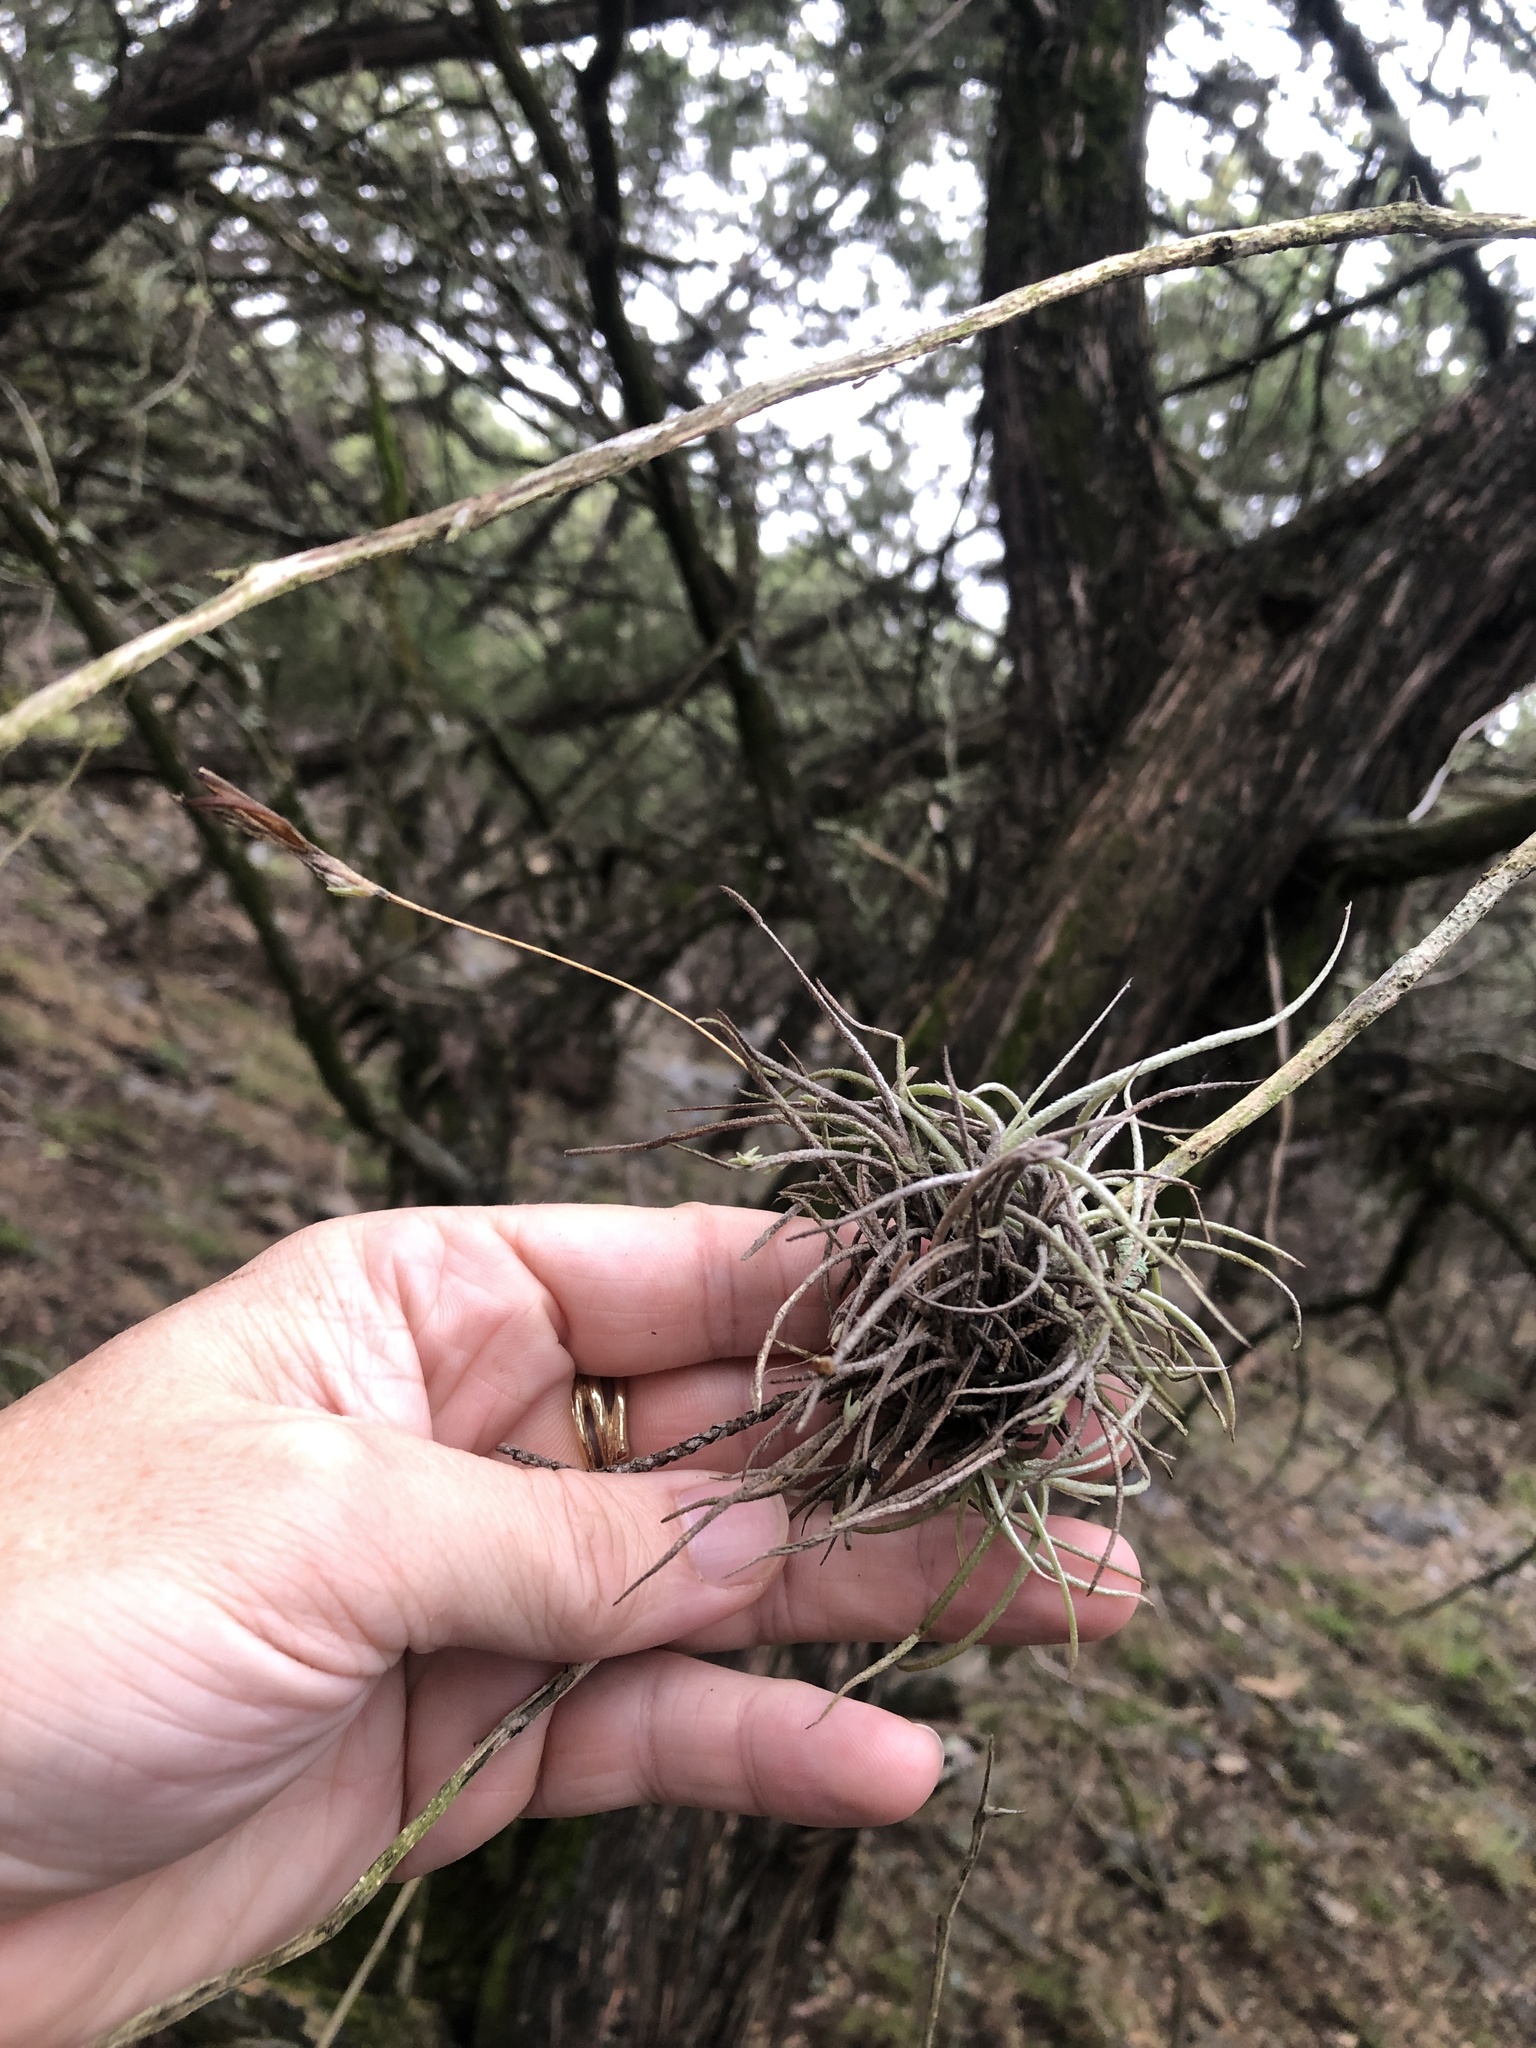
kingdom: Plantae
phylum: Tracheophyta
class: Liliopsida
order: Poales
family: Bromeliaceae
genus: Tillandsia
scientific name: Tillandsia recurvata
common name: Small ballmoss
